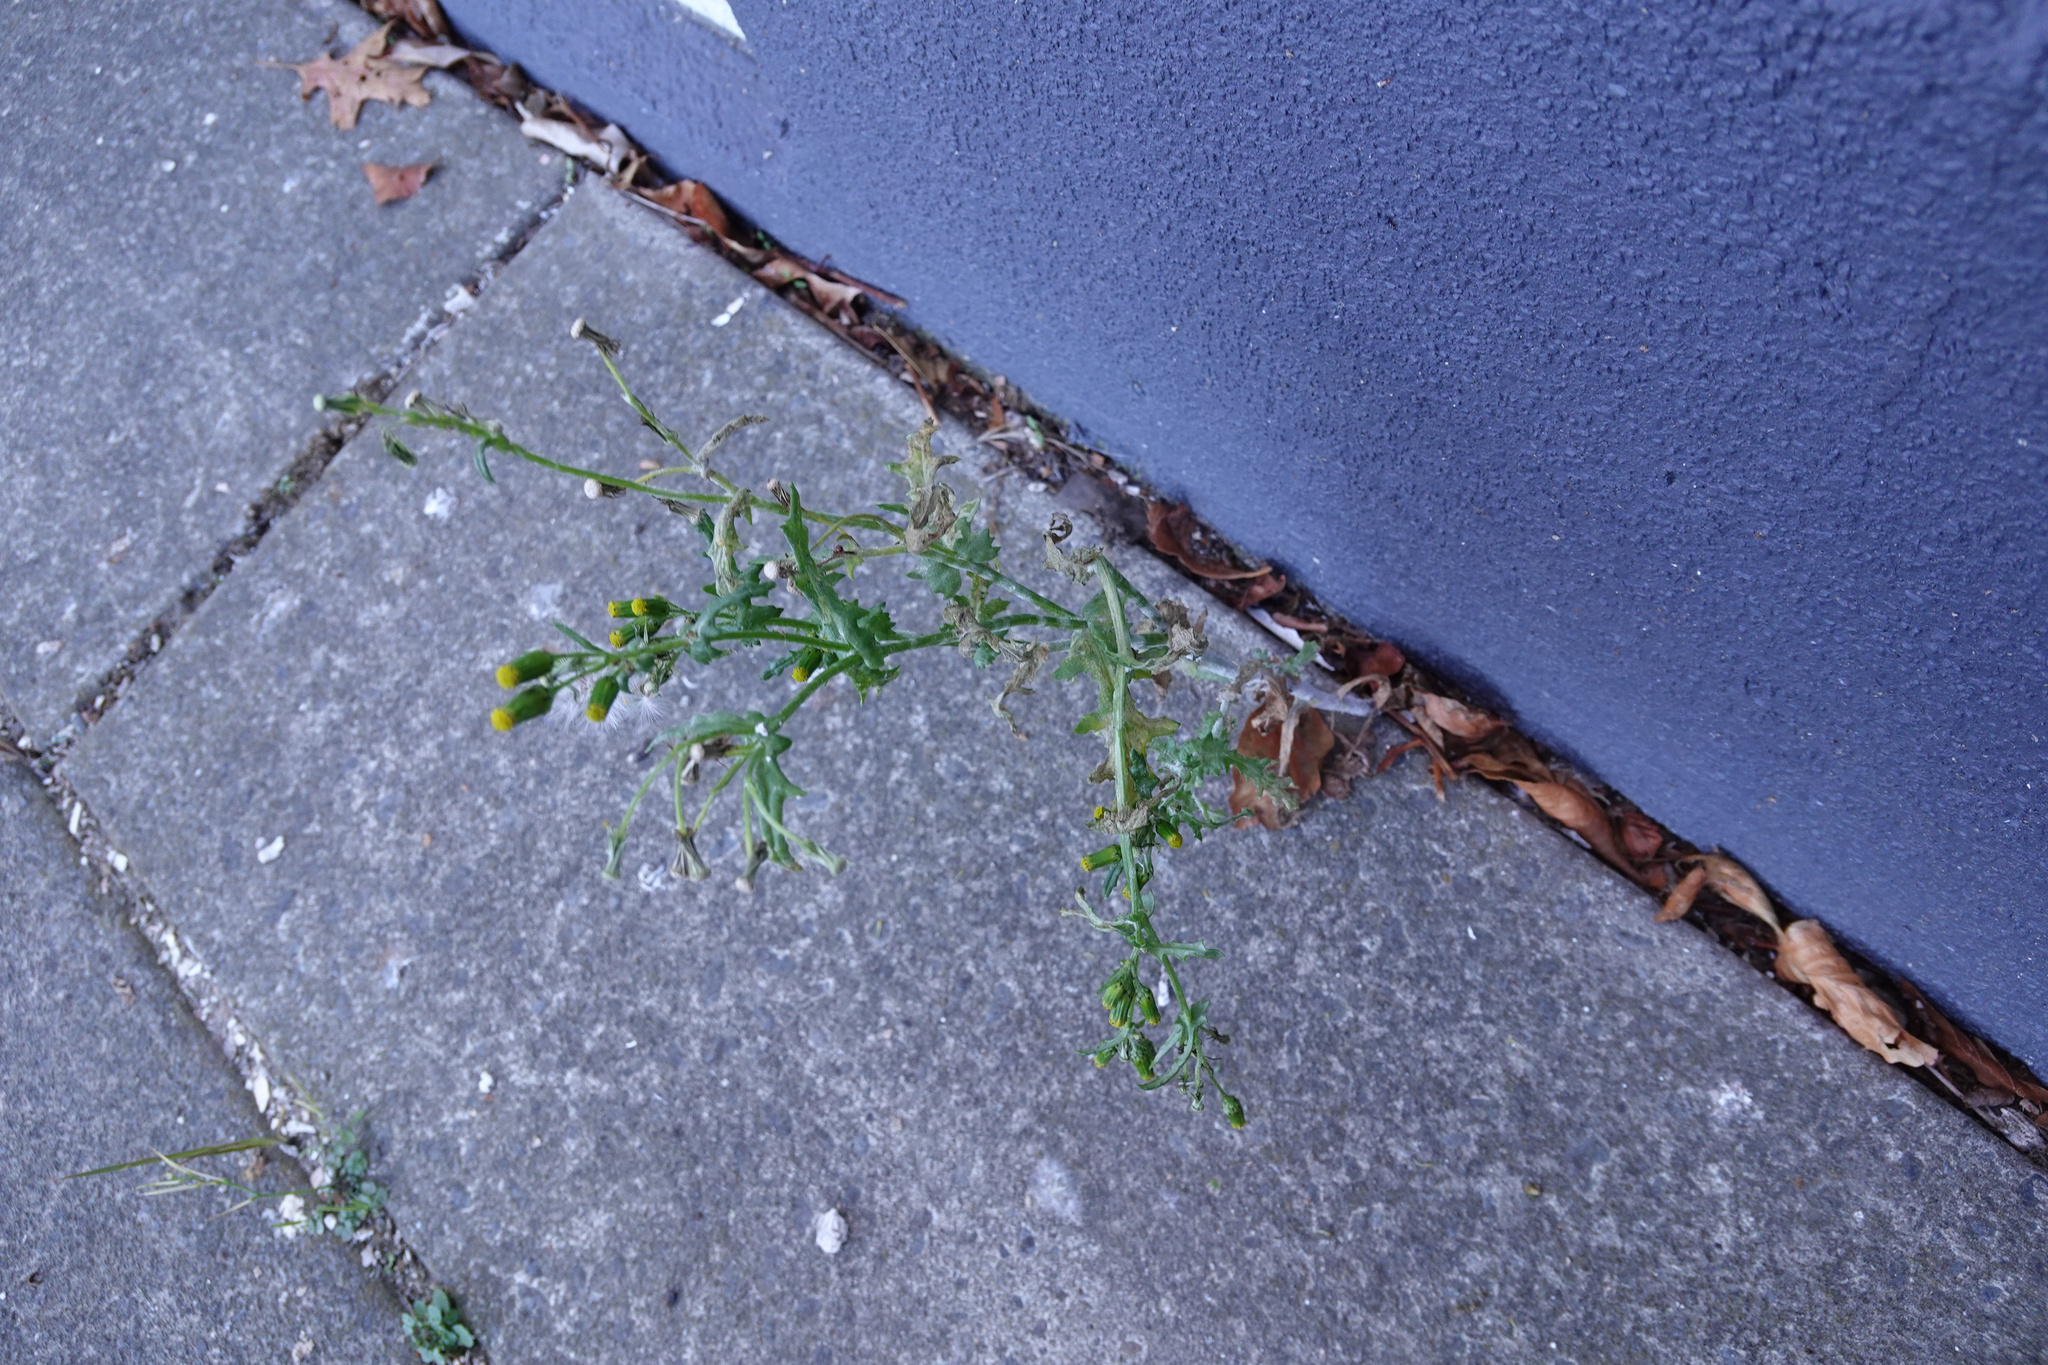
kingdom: Plantae
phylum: Tracheophyta
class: Magnoliopsida
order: Asterales
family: Asteraceae
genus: Senecio
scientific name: Senecio vulgaris
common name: Old-man-in-the-spring
